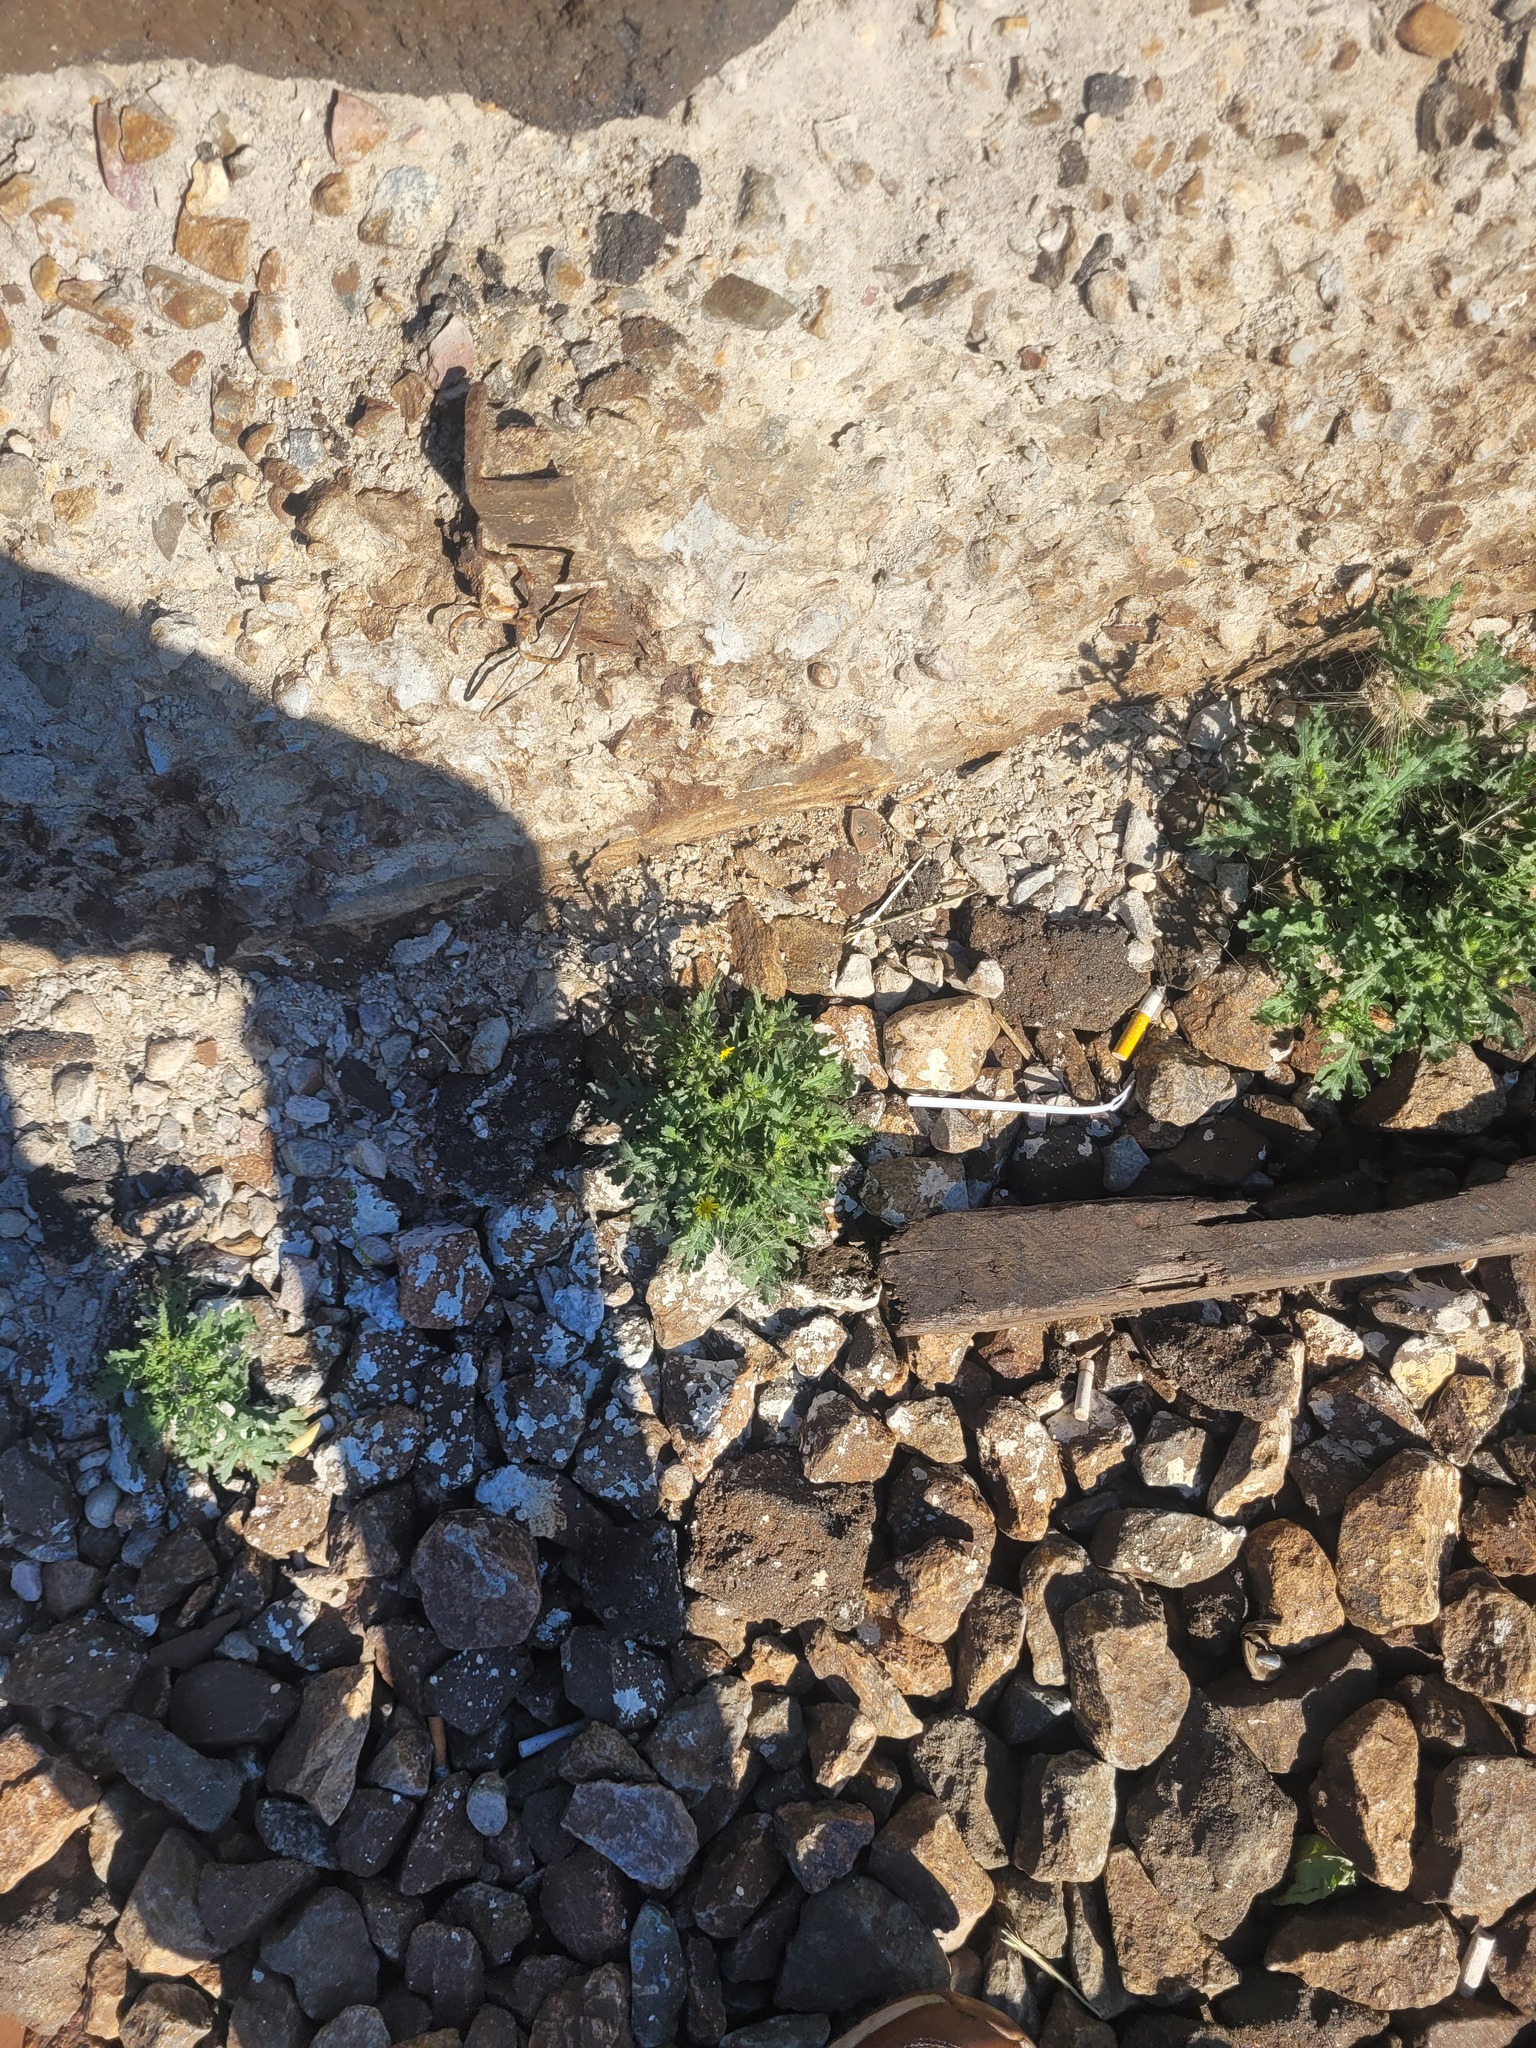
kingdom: Plantae
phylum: Tracheophyta
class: Magnoliopsida
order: Asterales
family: Asteraceae
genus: Senecio
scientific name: Senecio viscosus
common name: Sticky groundsel
